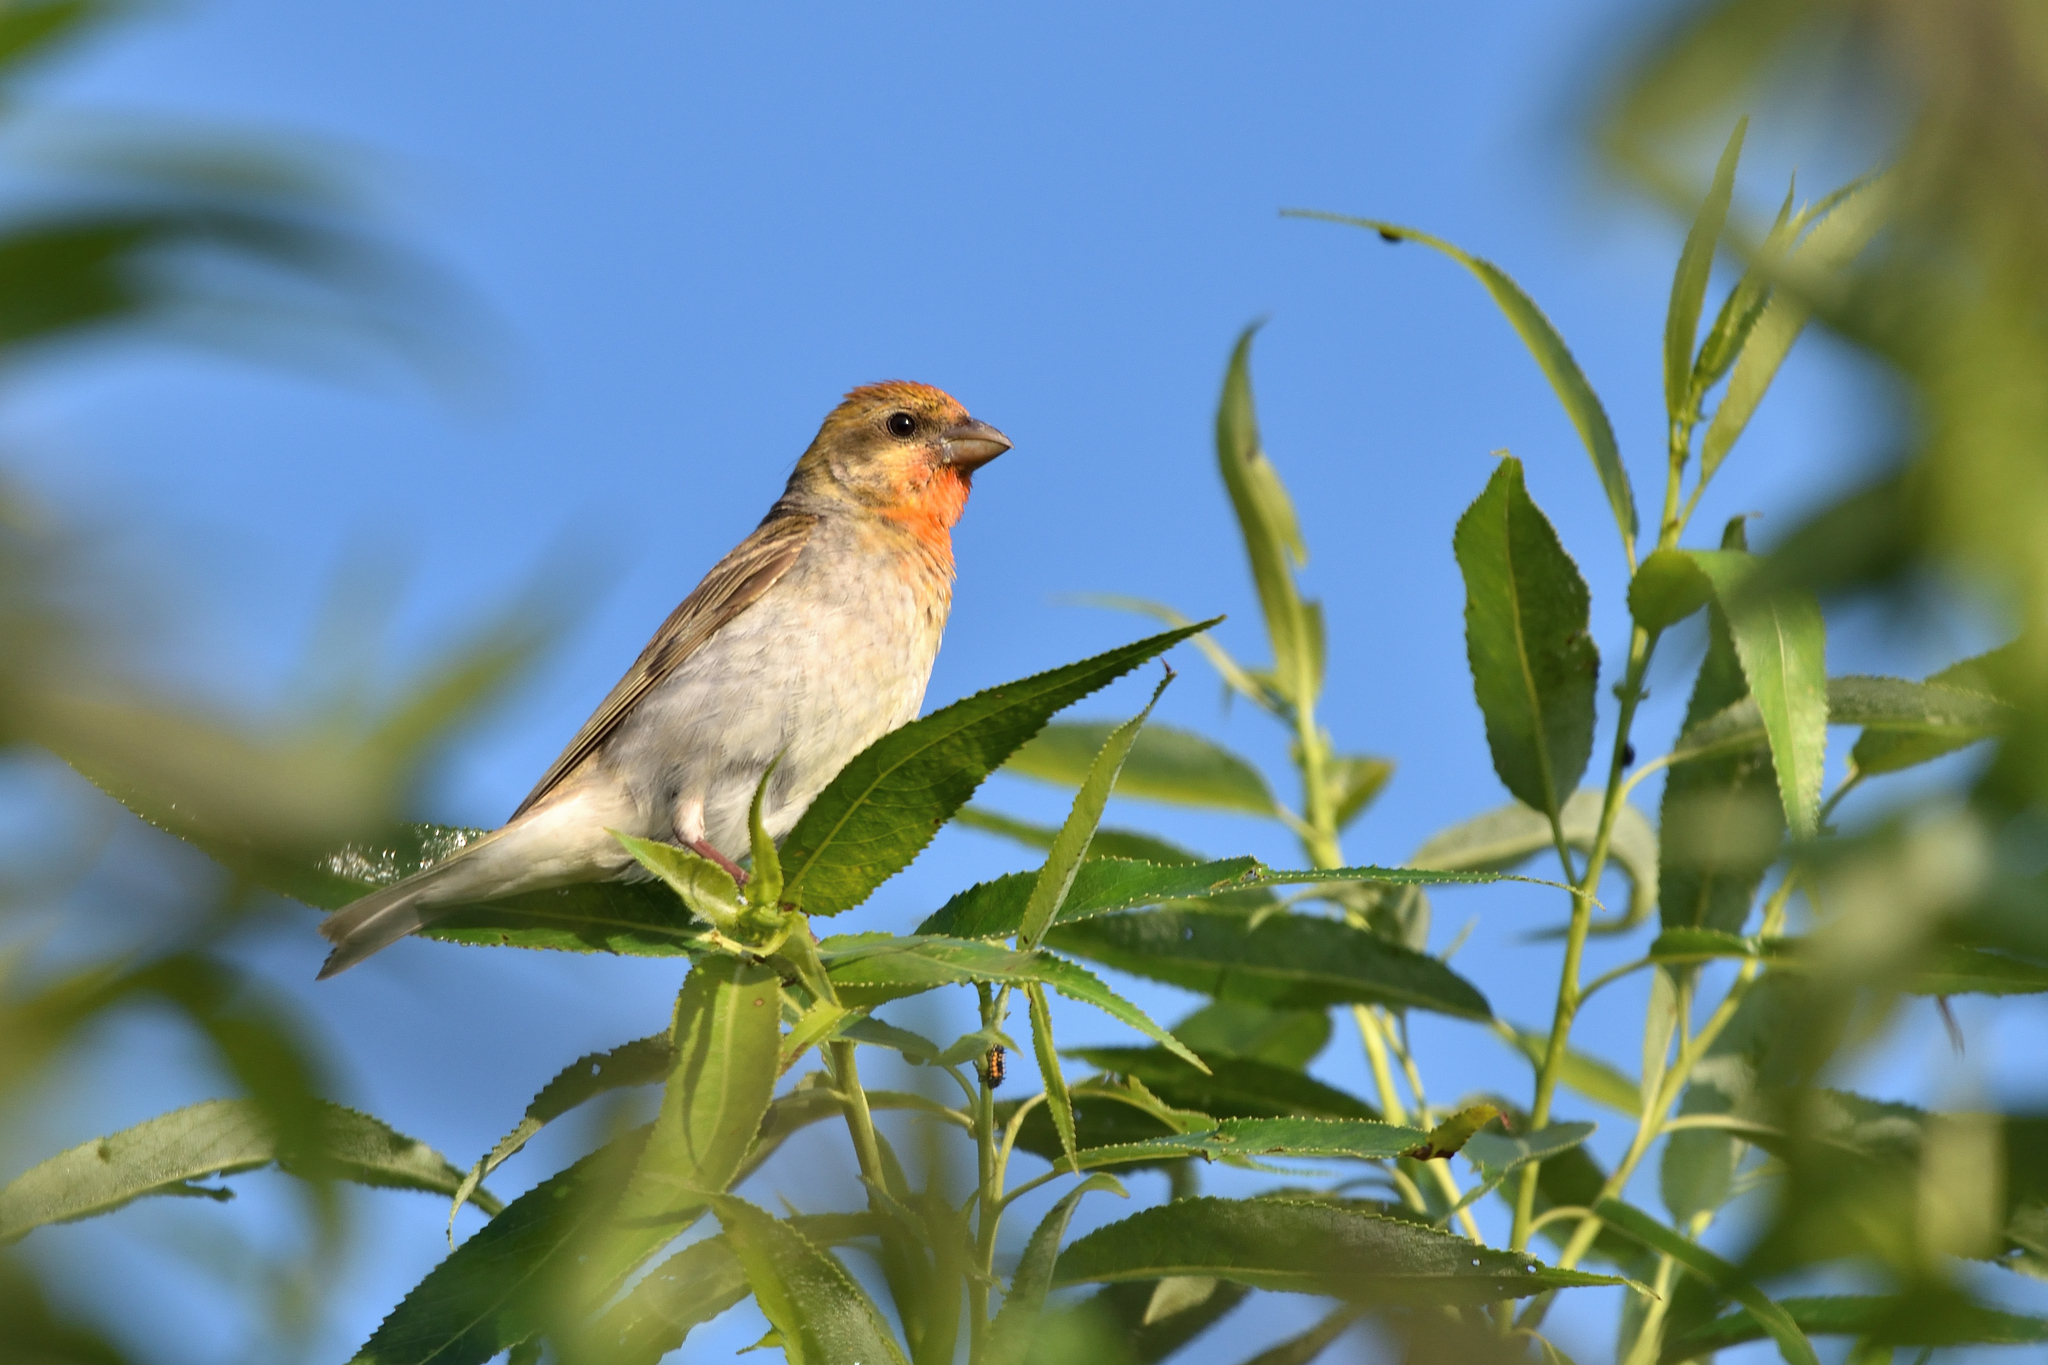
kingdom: Animalia
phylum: Chordata
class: Aves
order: Passeriformes
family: Fringillidae
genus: Carpodacus
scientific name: Carpodacus erythrinus
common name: Common rosefinch
